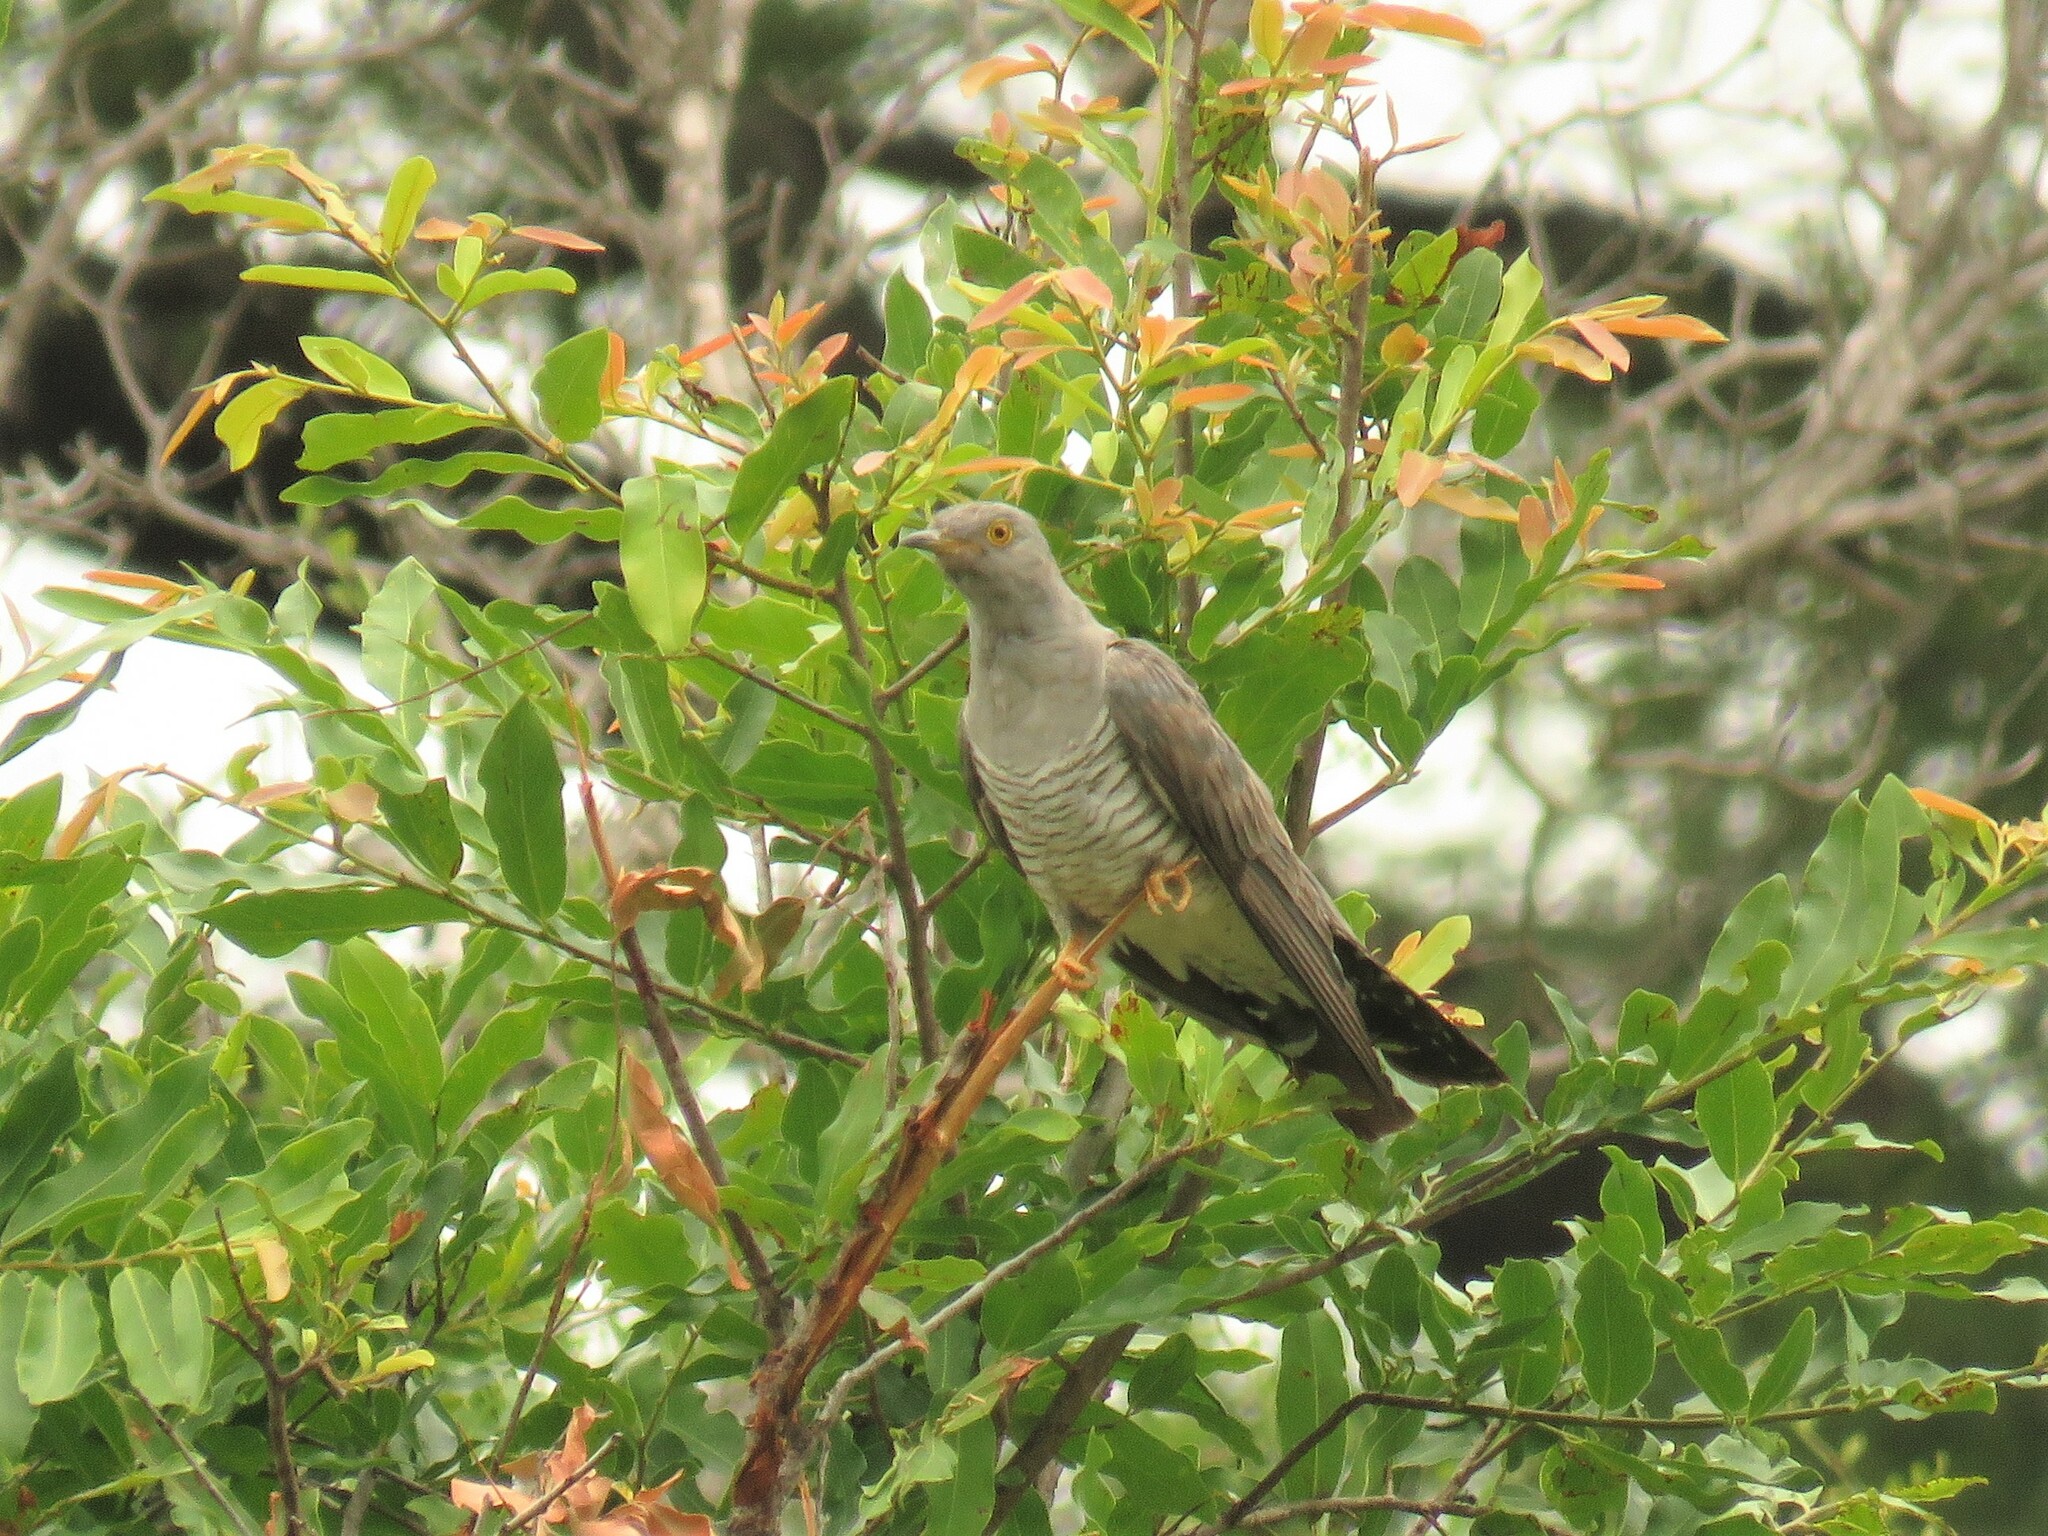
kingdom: Animalia
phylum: Chordata
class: Aves
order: Cuculiformes
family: Cuculidae
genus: Cuculus
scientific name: Cuculus canorus
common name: Common cuckoo
